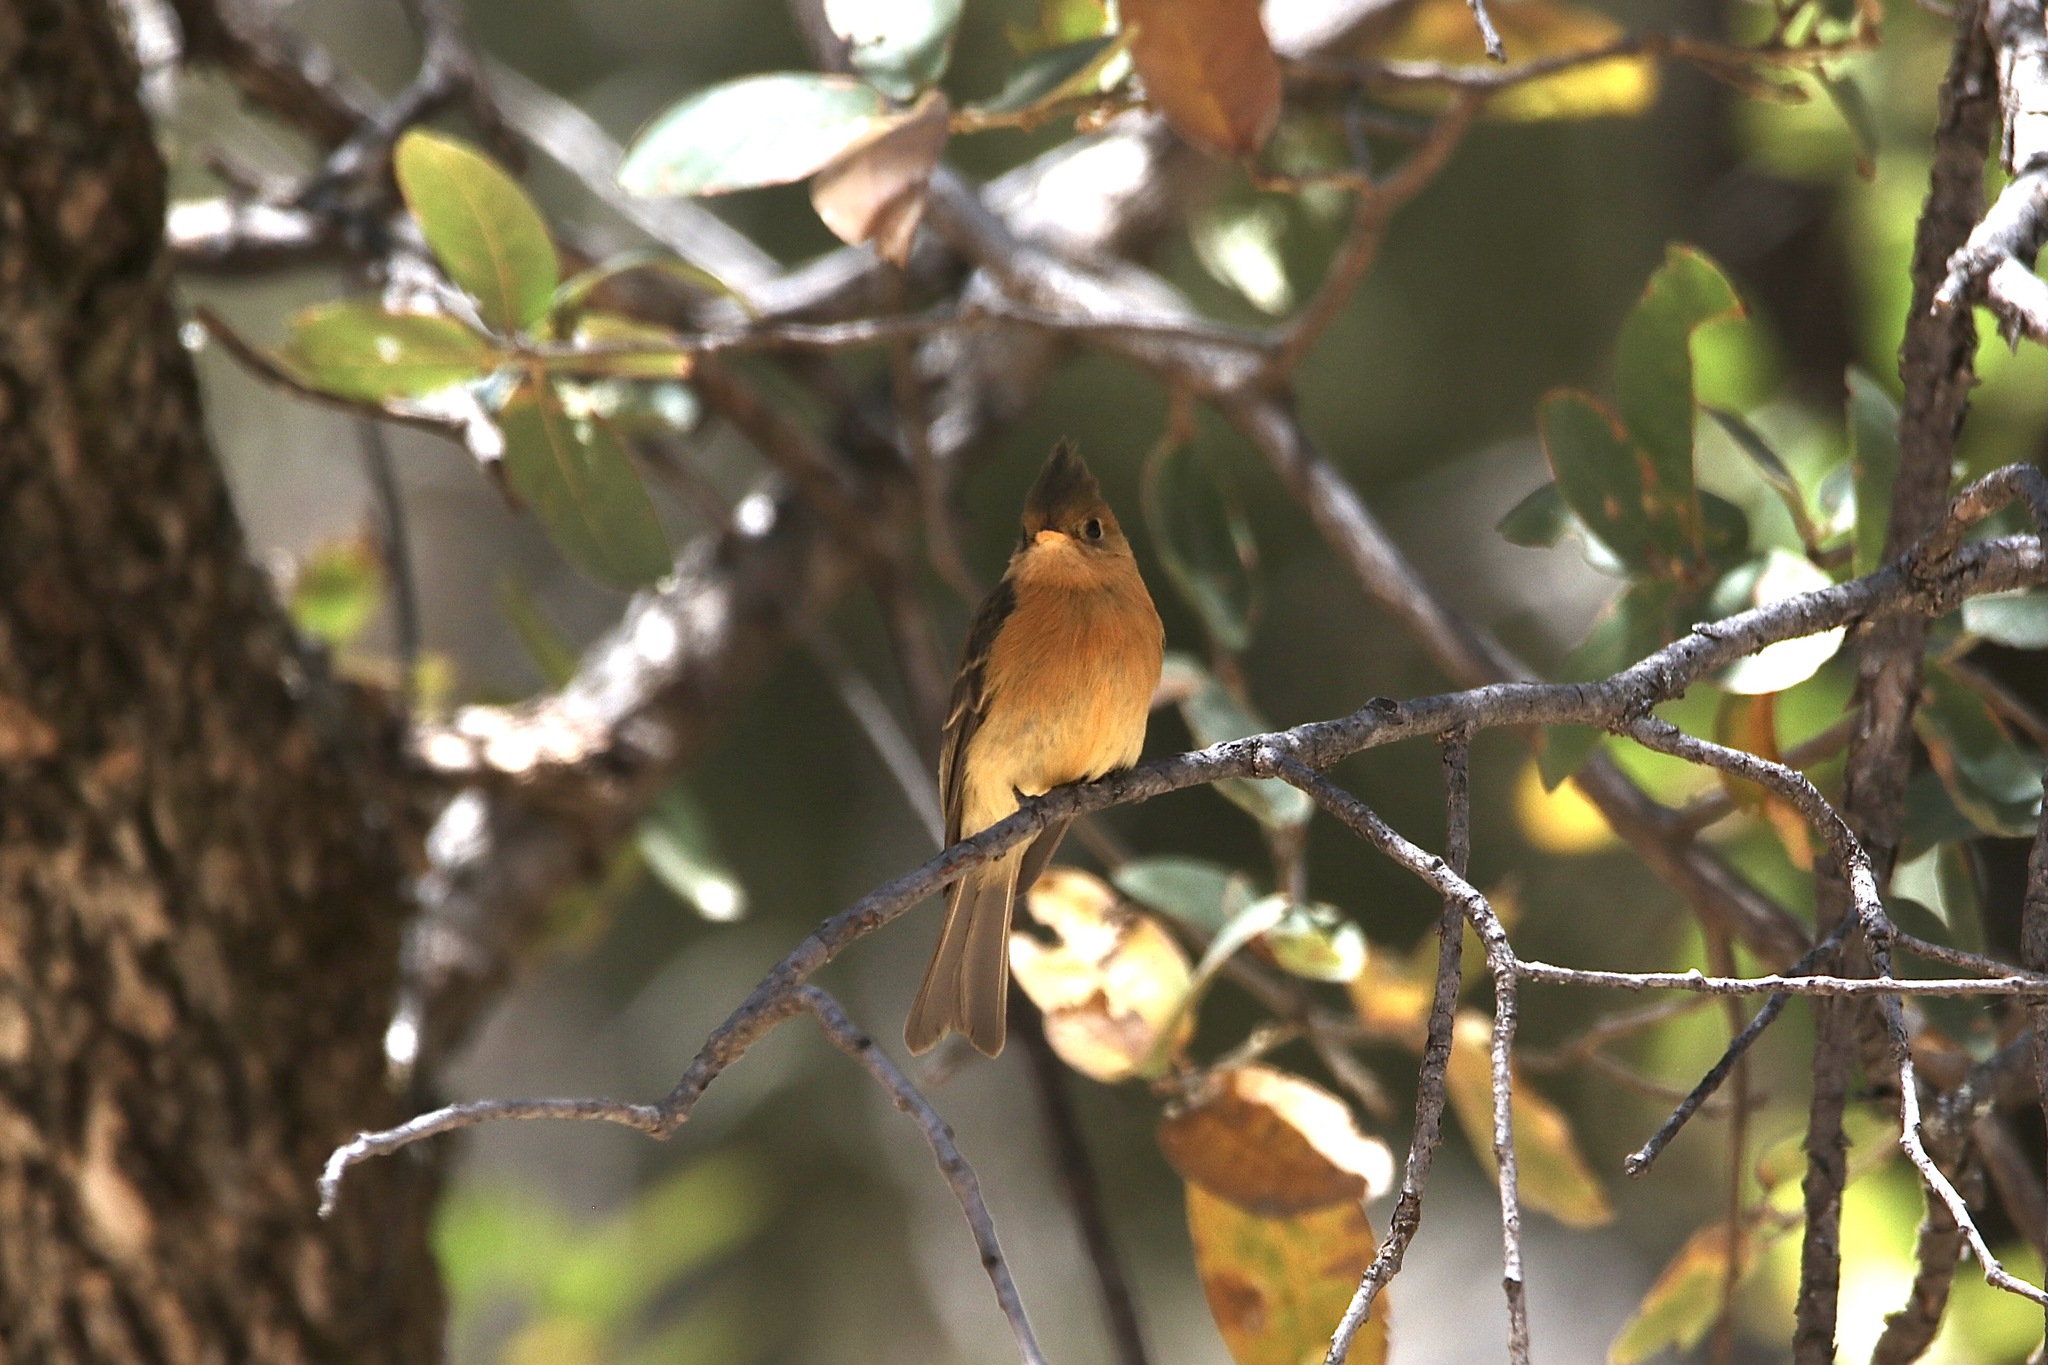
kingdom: Animalia
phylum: Chordata
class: Aves
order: Passeriformes
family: Tyrannidae
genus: Mitrephanes
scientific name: Mitrephanes phaeocercus
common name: Northern tufted flycatcher
